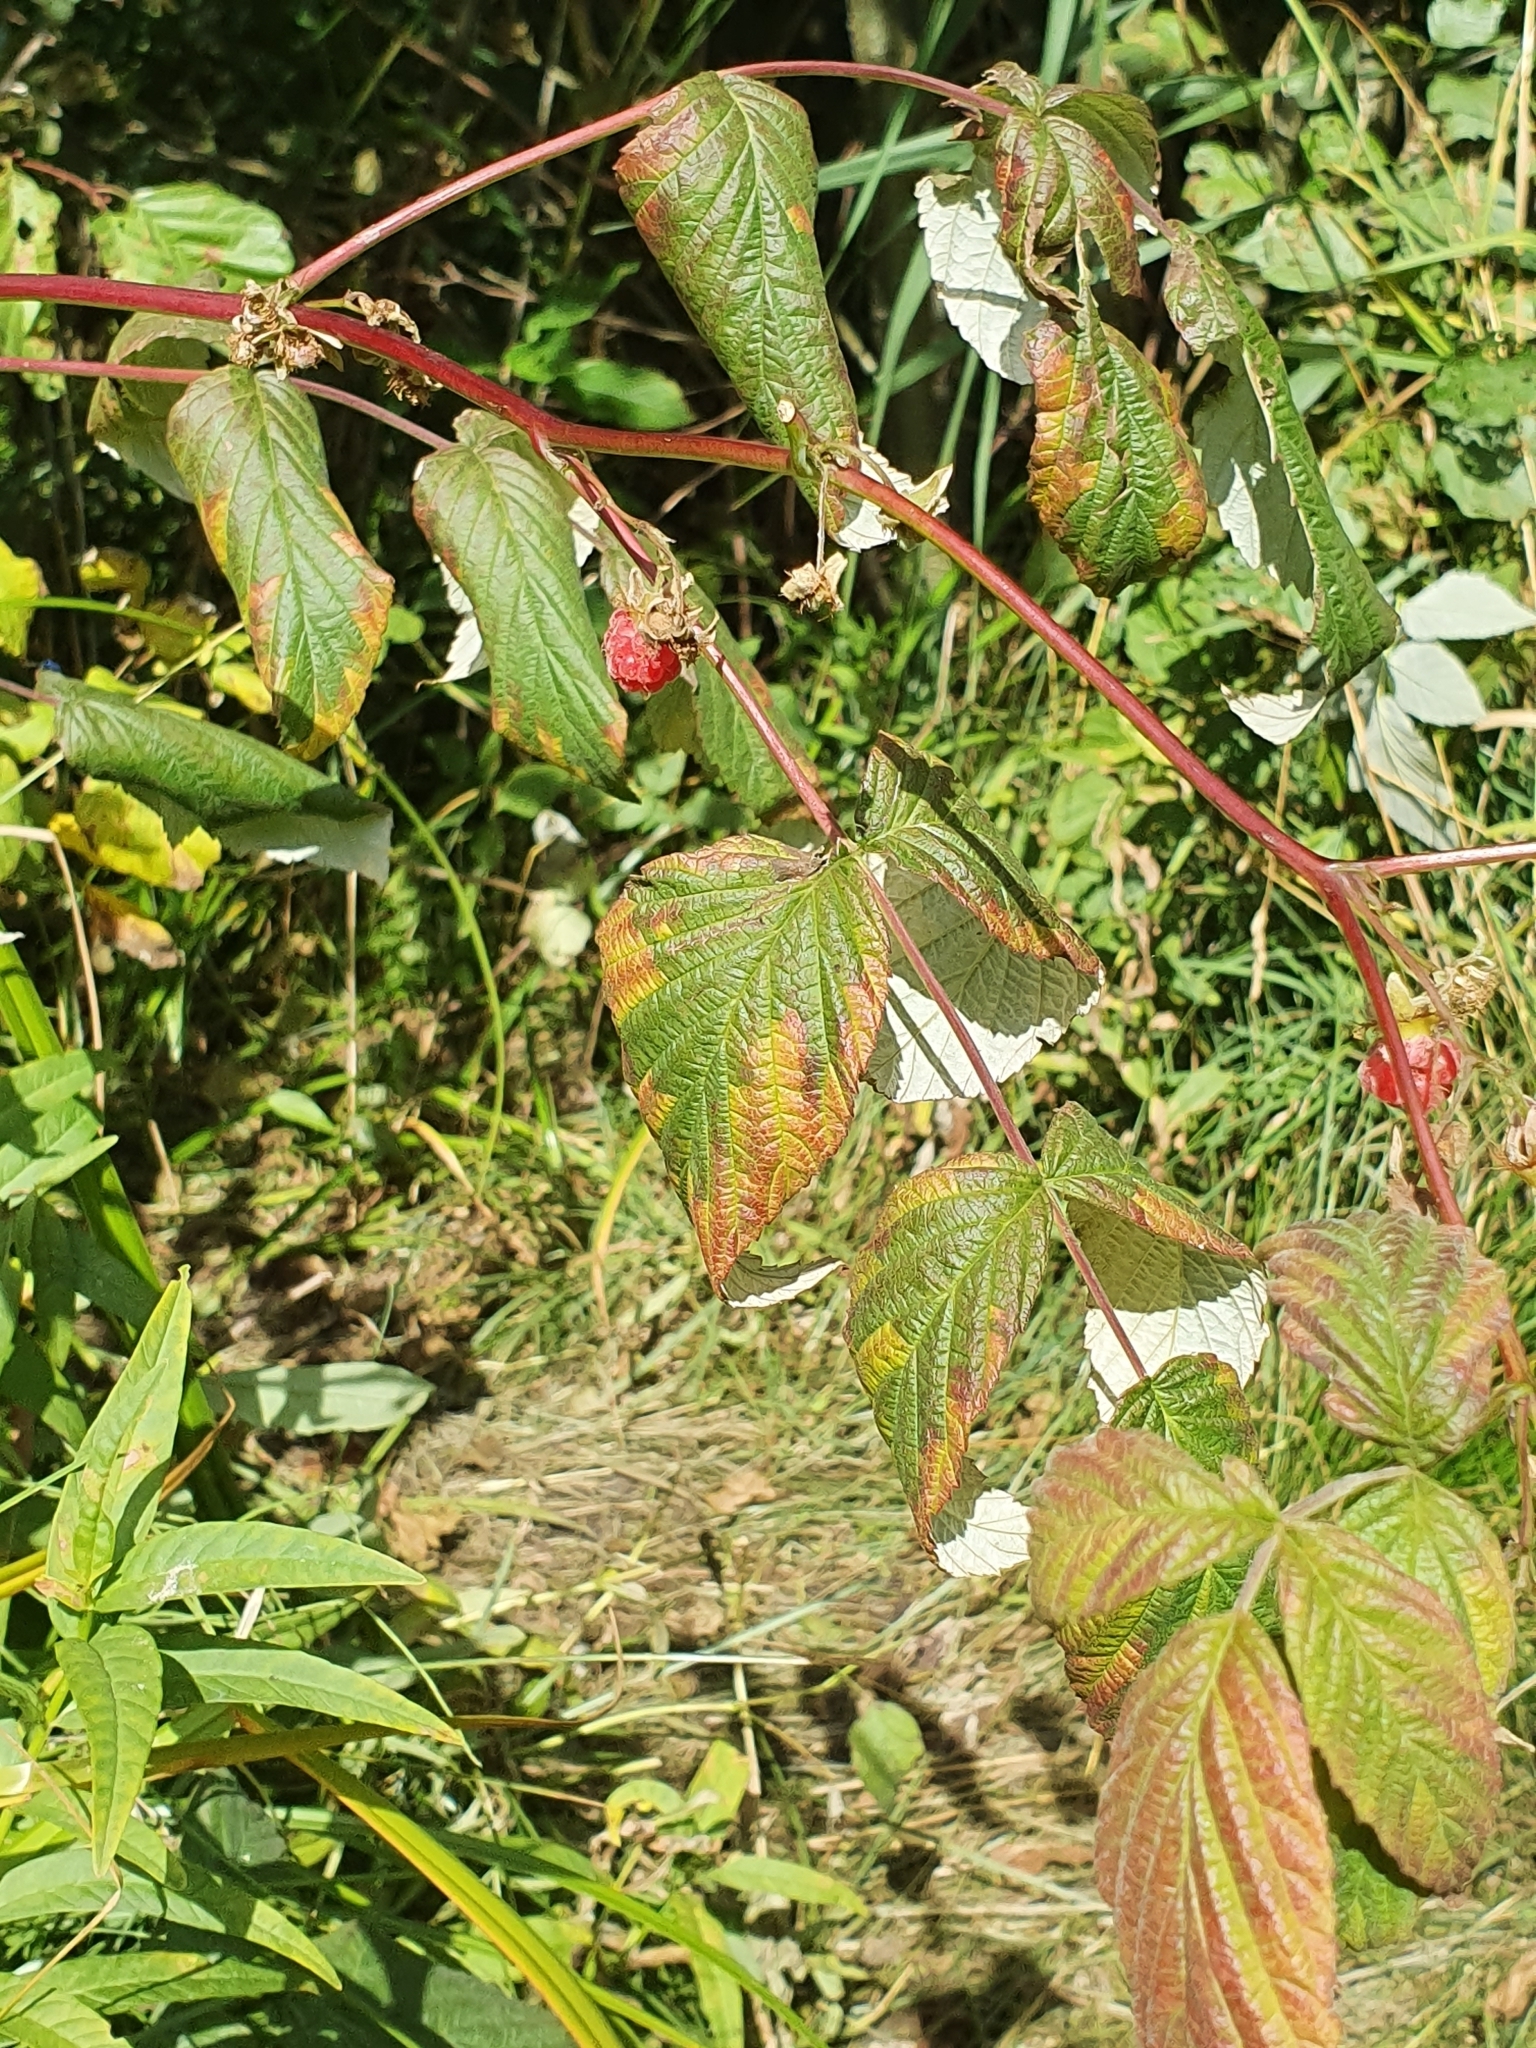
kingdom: Plantae
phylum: Tracheophyta
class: Magnoliopsida
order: Rosales
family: Rosaceae
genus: Rubus
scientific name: Rubus idaeus
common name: Raspberry
